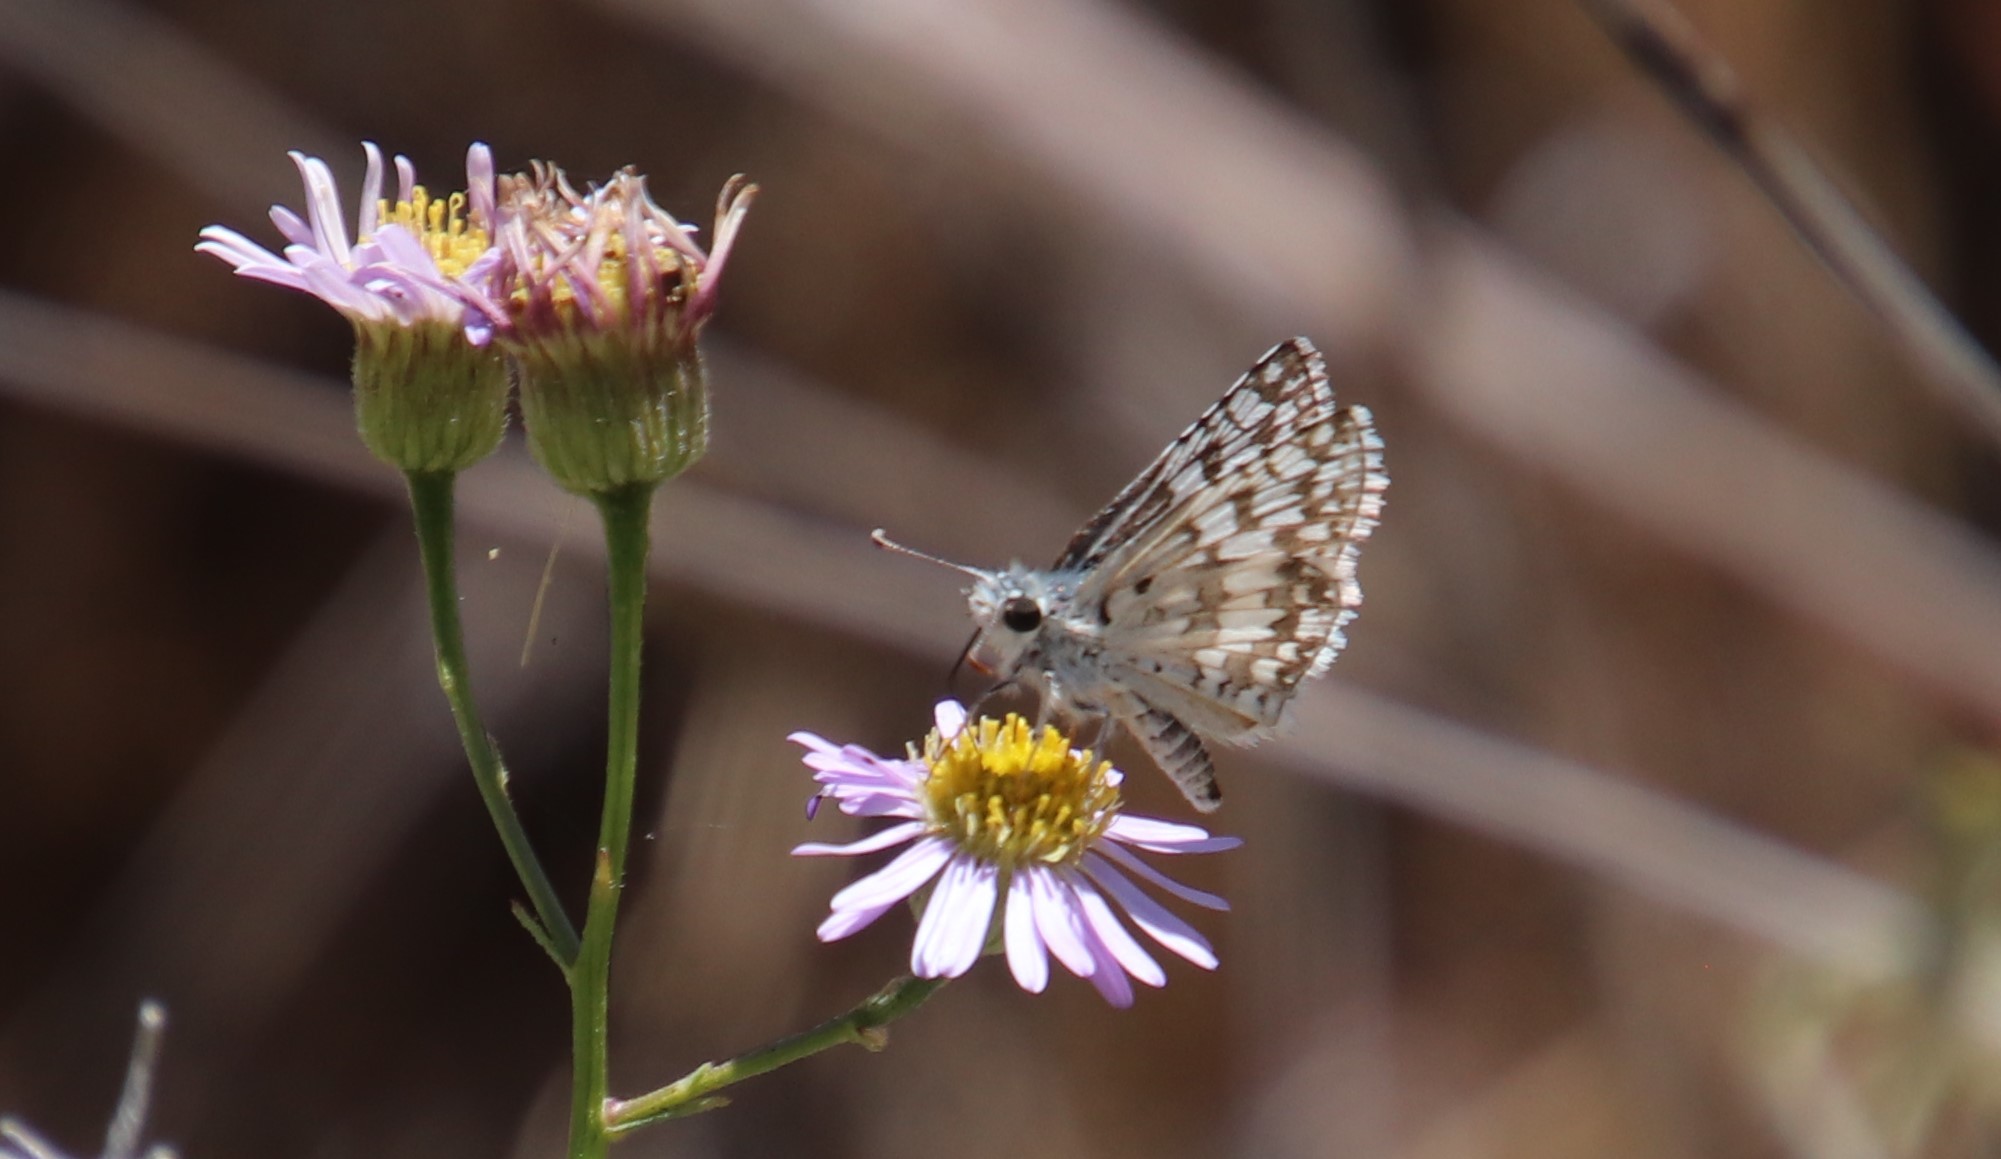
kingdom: Animalia
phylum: Arthropoda
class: Insecta
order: Lepidoptera
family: Hesperiidae
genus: Burnsius
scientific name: Burnsius albezens
